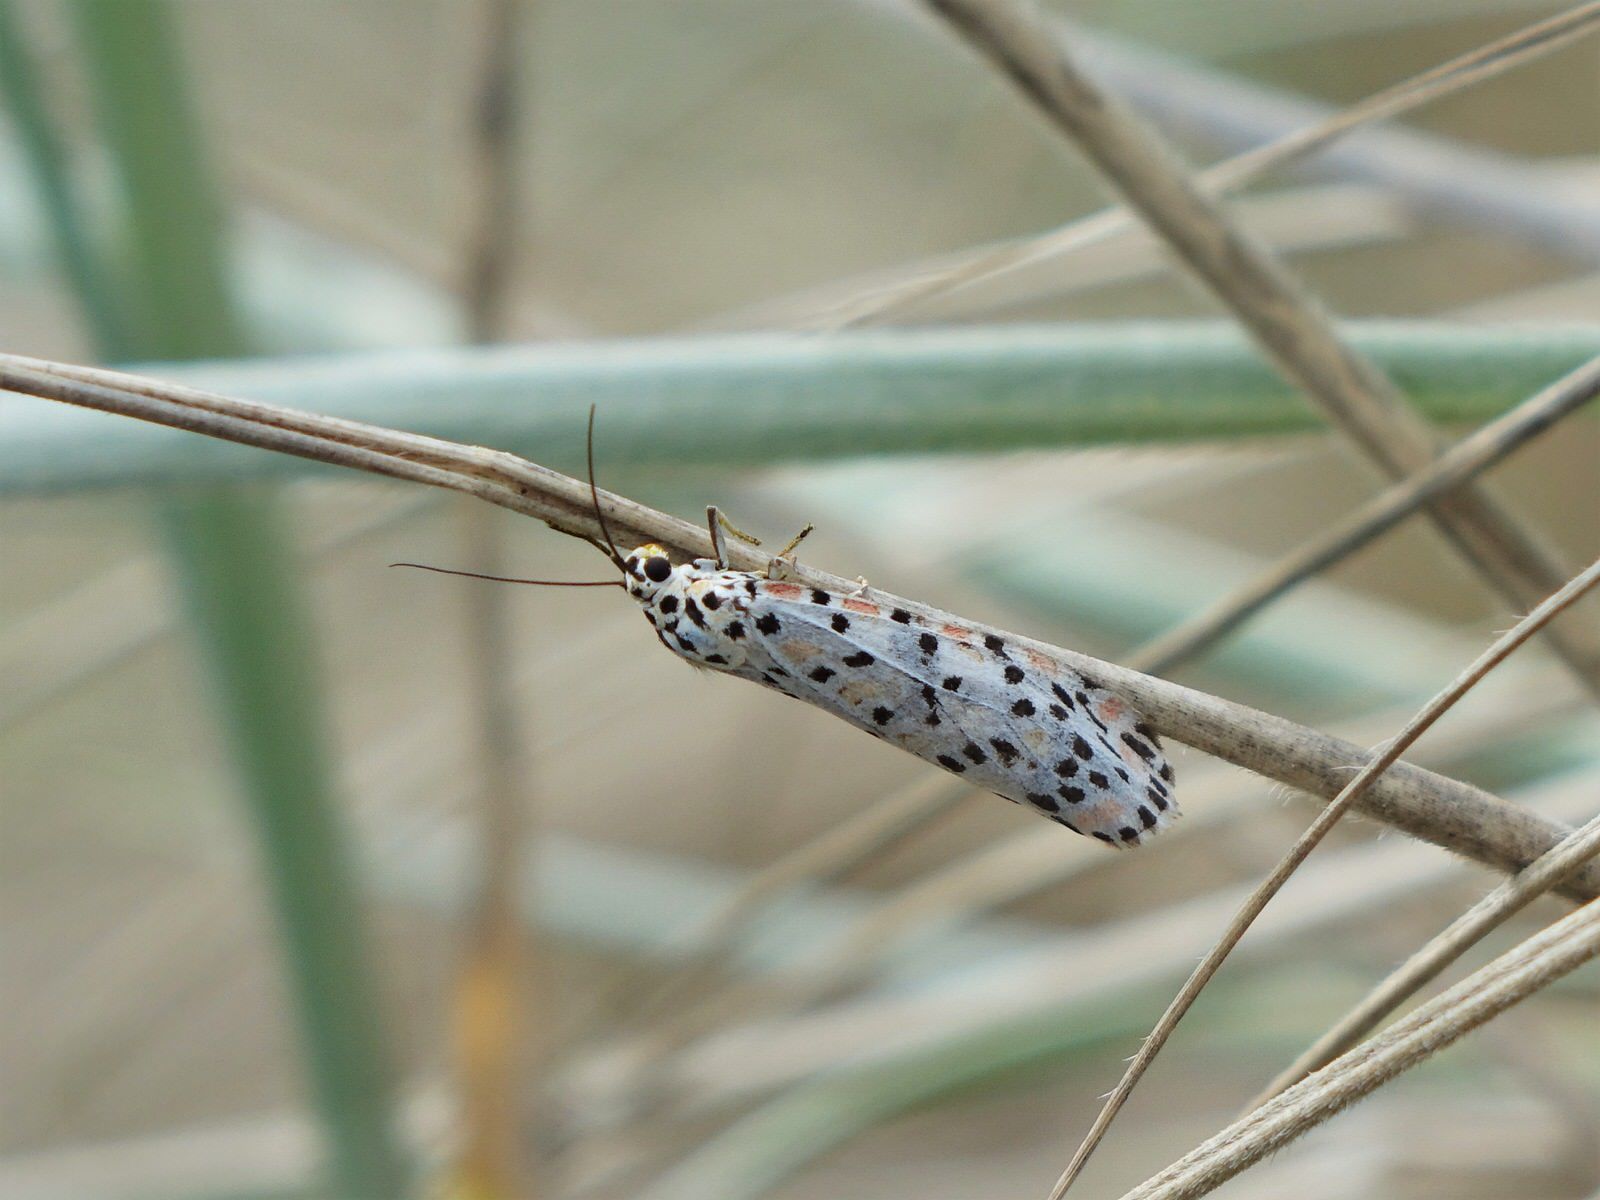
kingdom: Animalia
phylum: Arthropoda
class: Insecta
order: Lepidoptera
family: Erebidae
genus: Utetheisa
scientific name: Utetheisa pulchelloides
